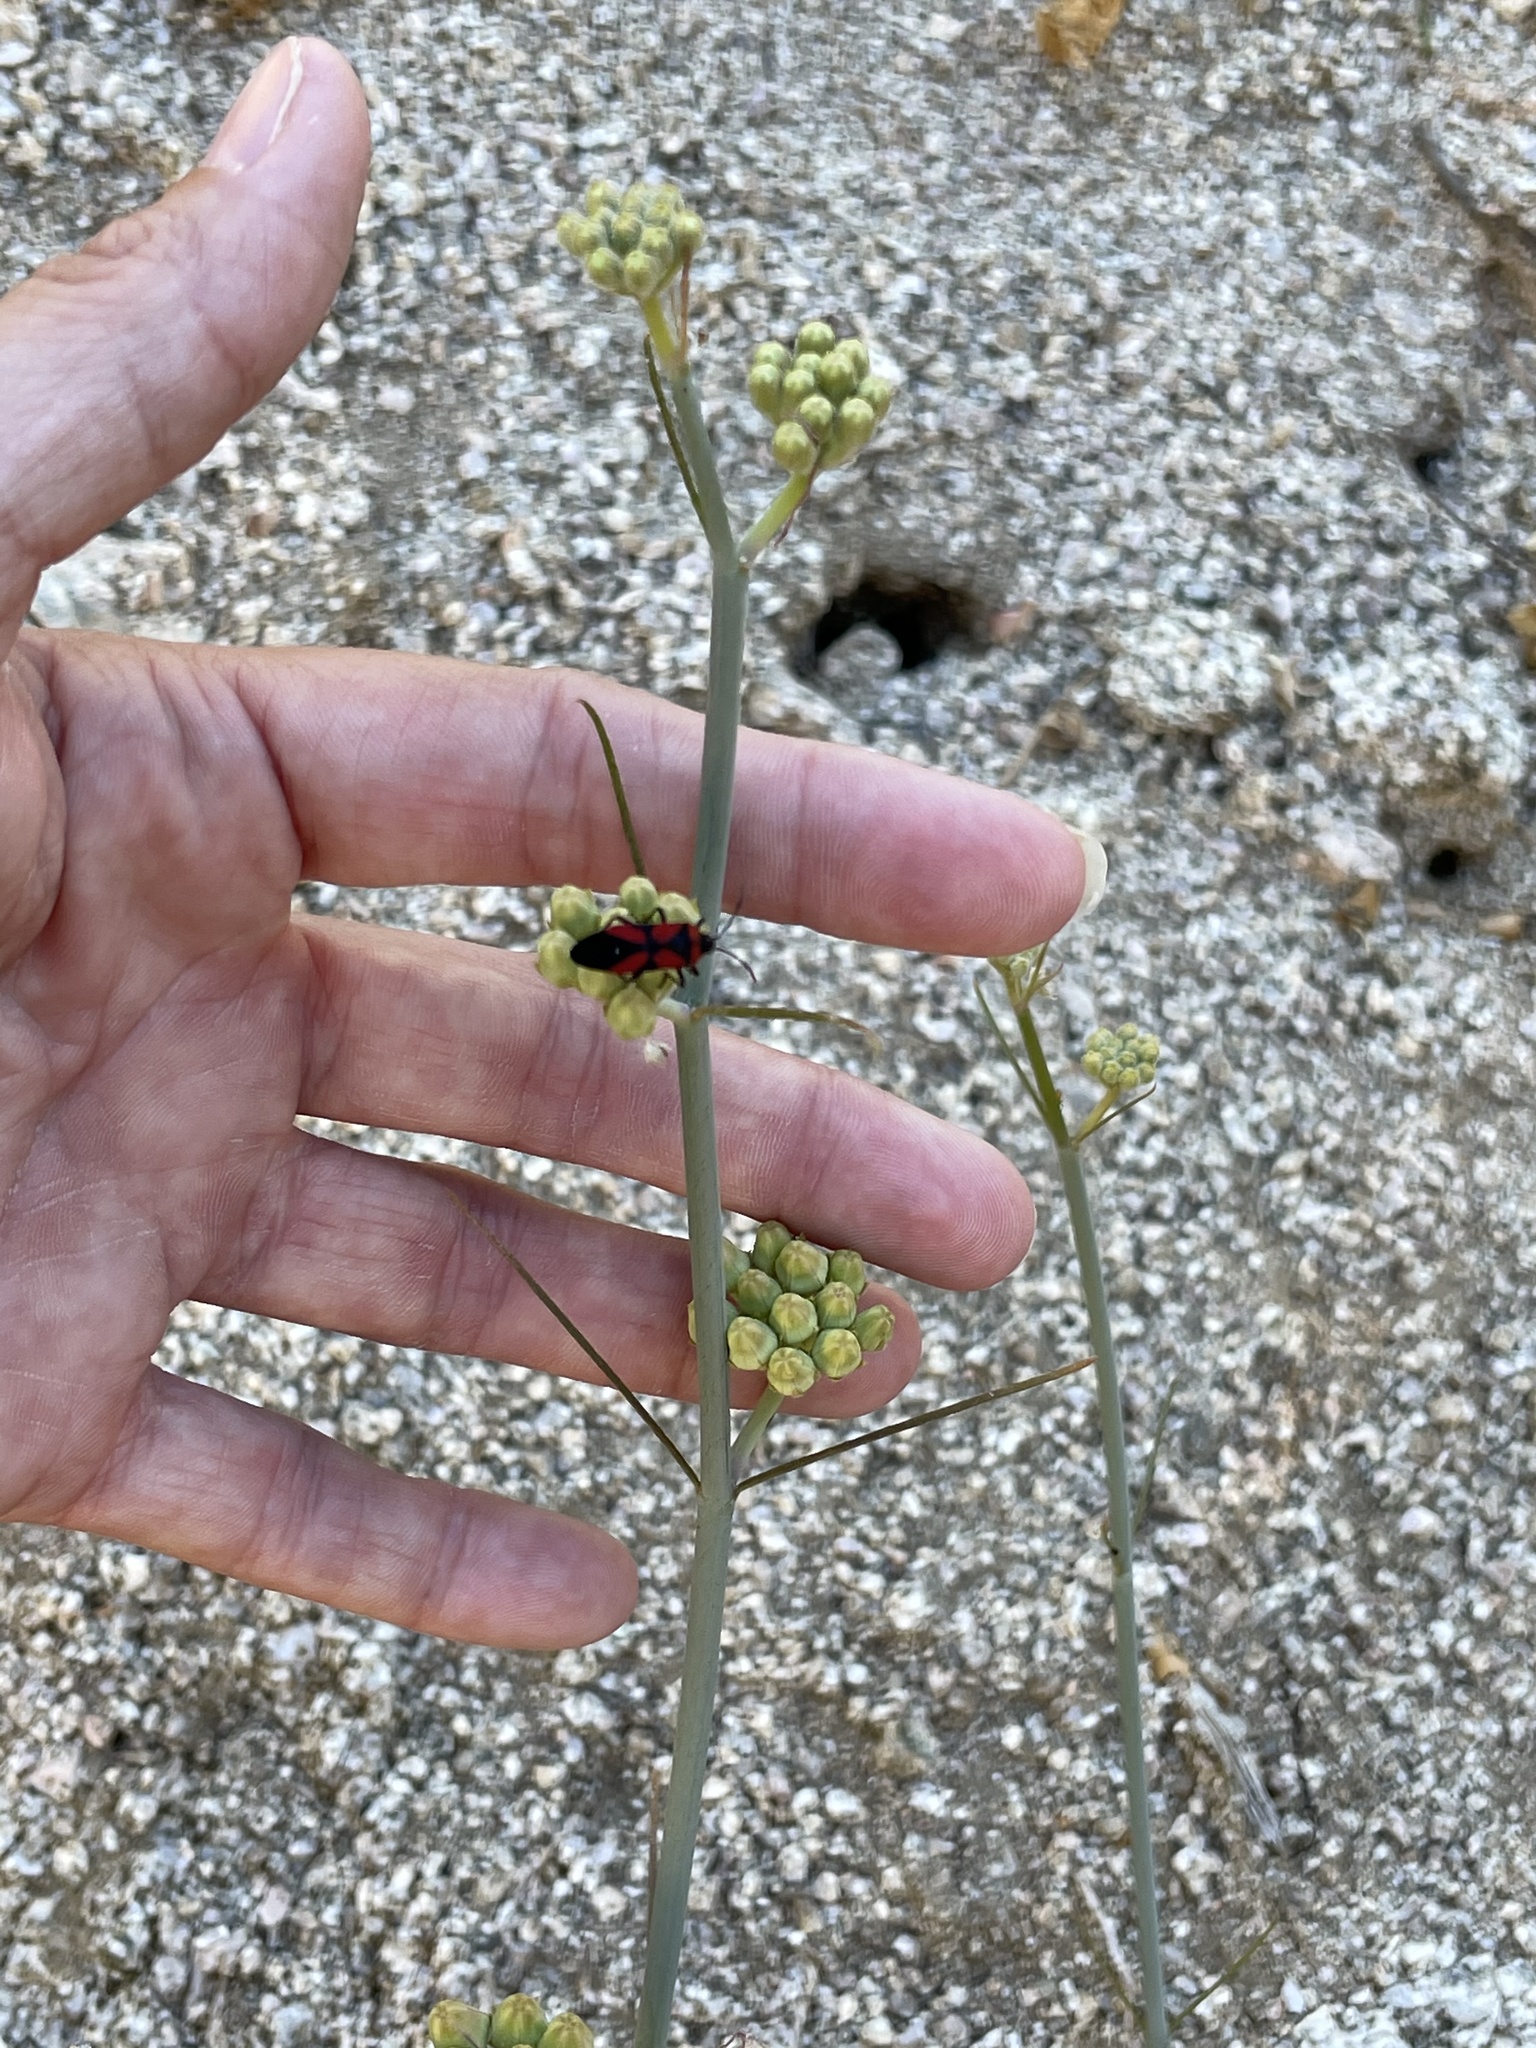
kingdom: Animalia
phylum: Arthropoda
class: Insecta
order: Hemiptera
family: Lygaeidae
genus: Oncopeltus
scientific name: Oncopeltus sanguinolentus
